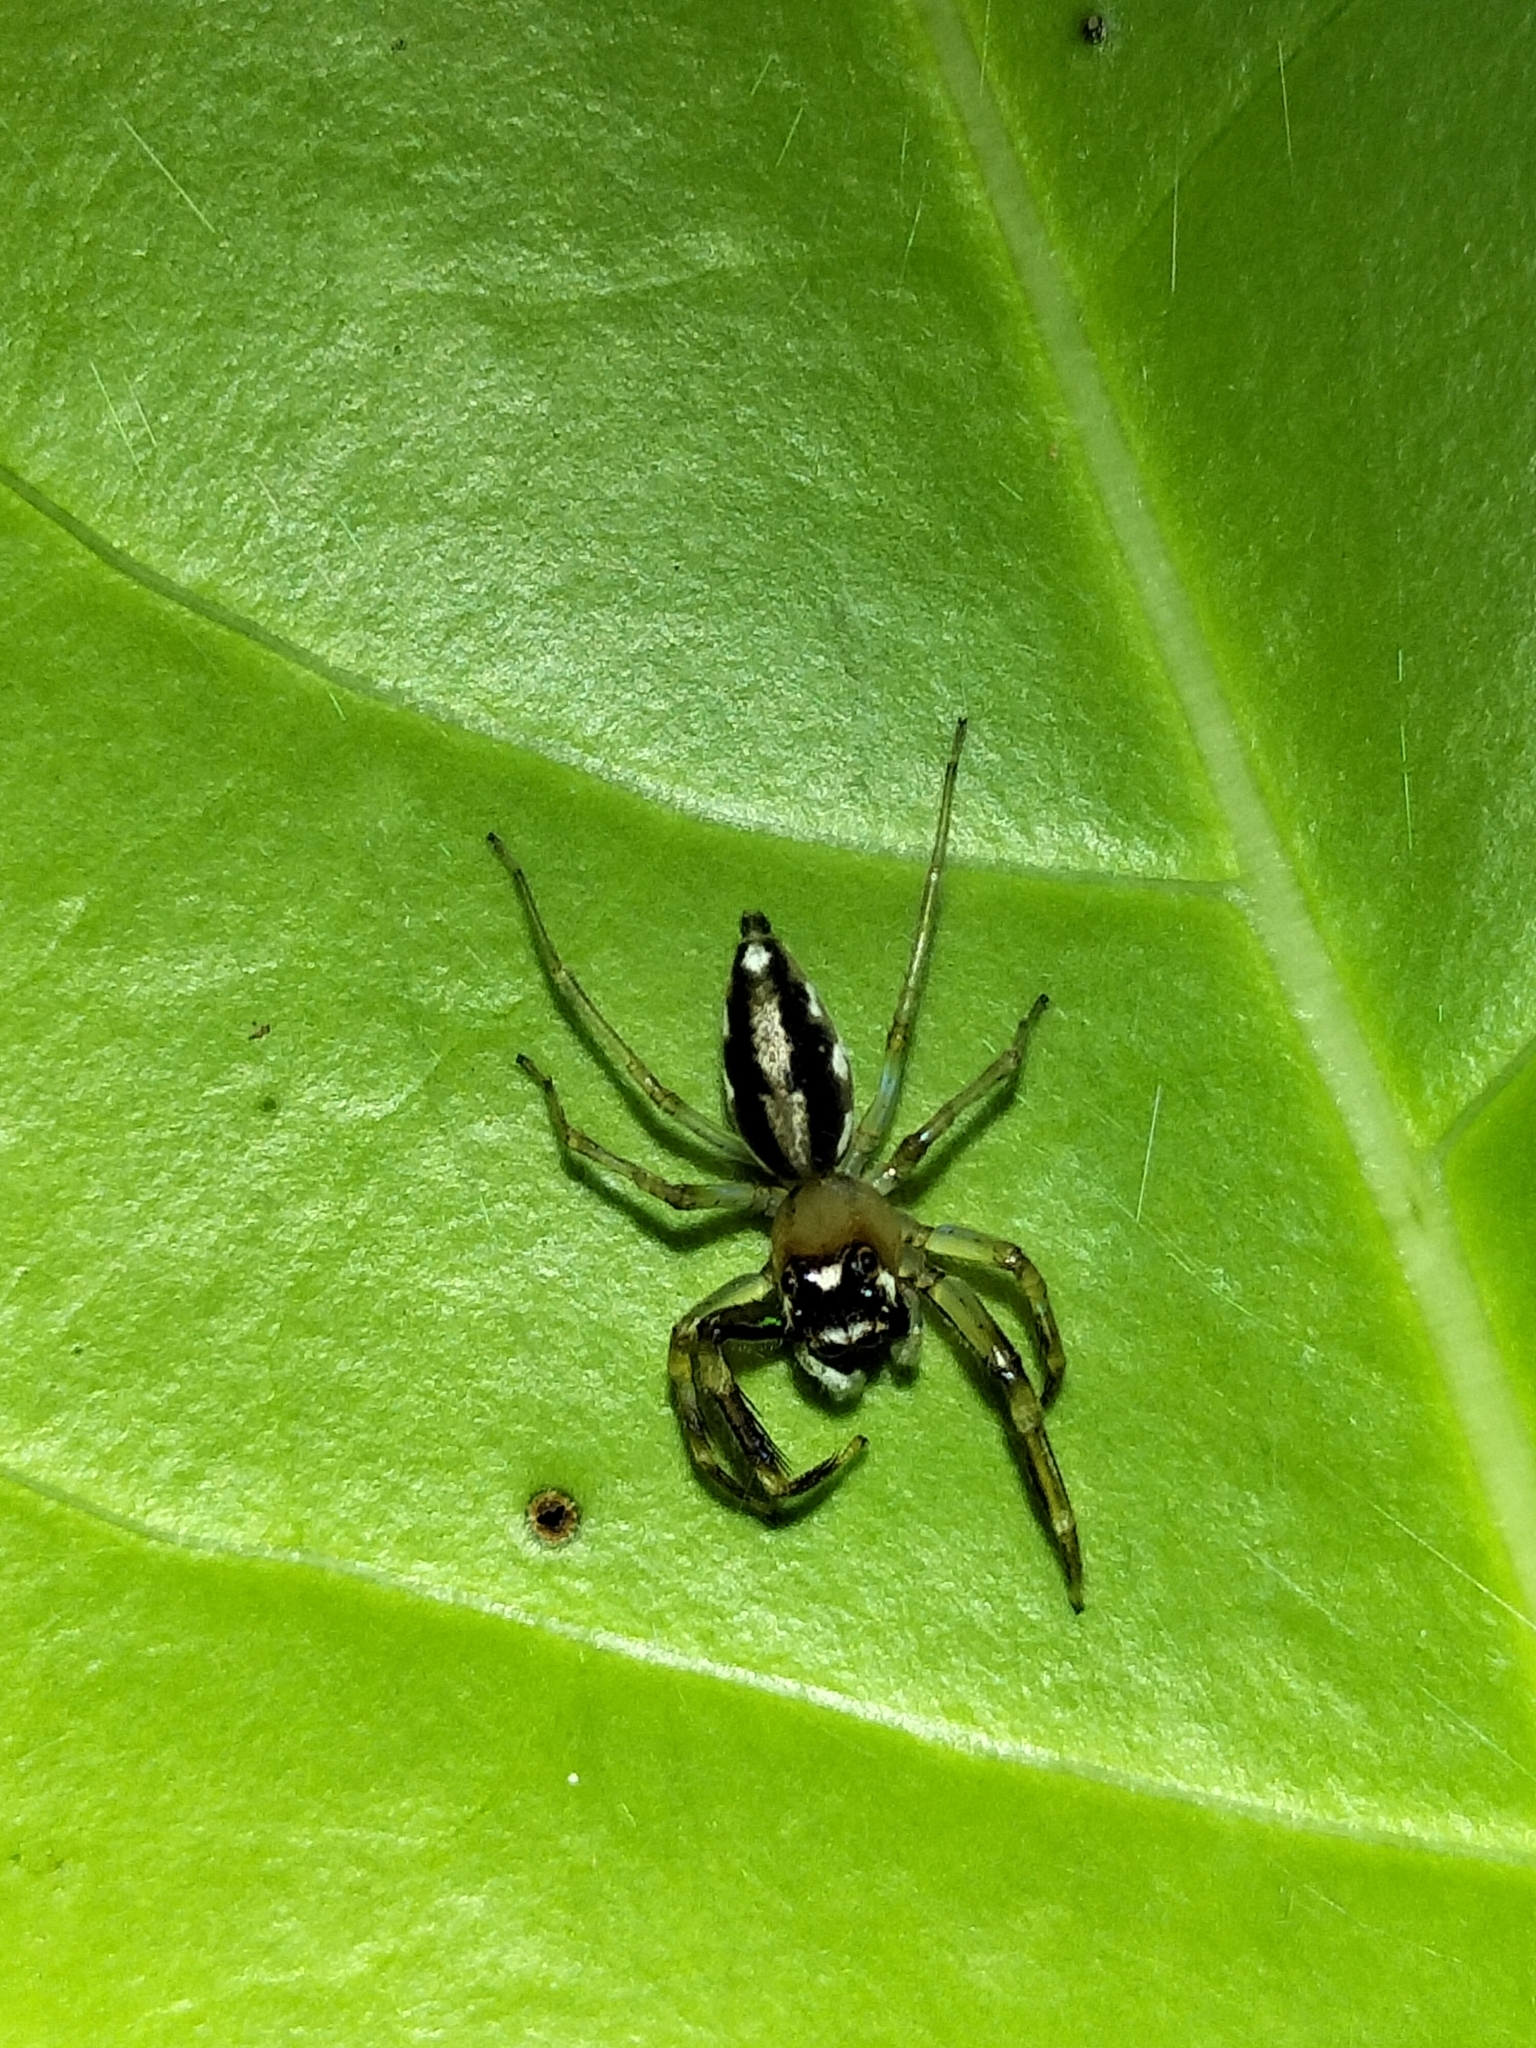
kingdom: Animalia
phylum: Arthropoda
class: Arachnida
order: Araneae
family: Salticidae
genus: Tauala
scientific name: Tauala lepidus
